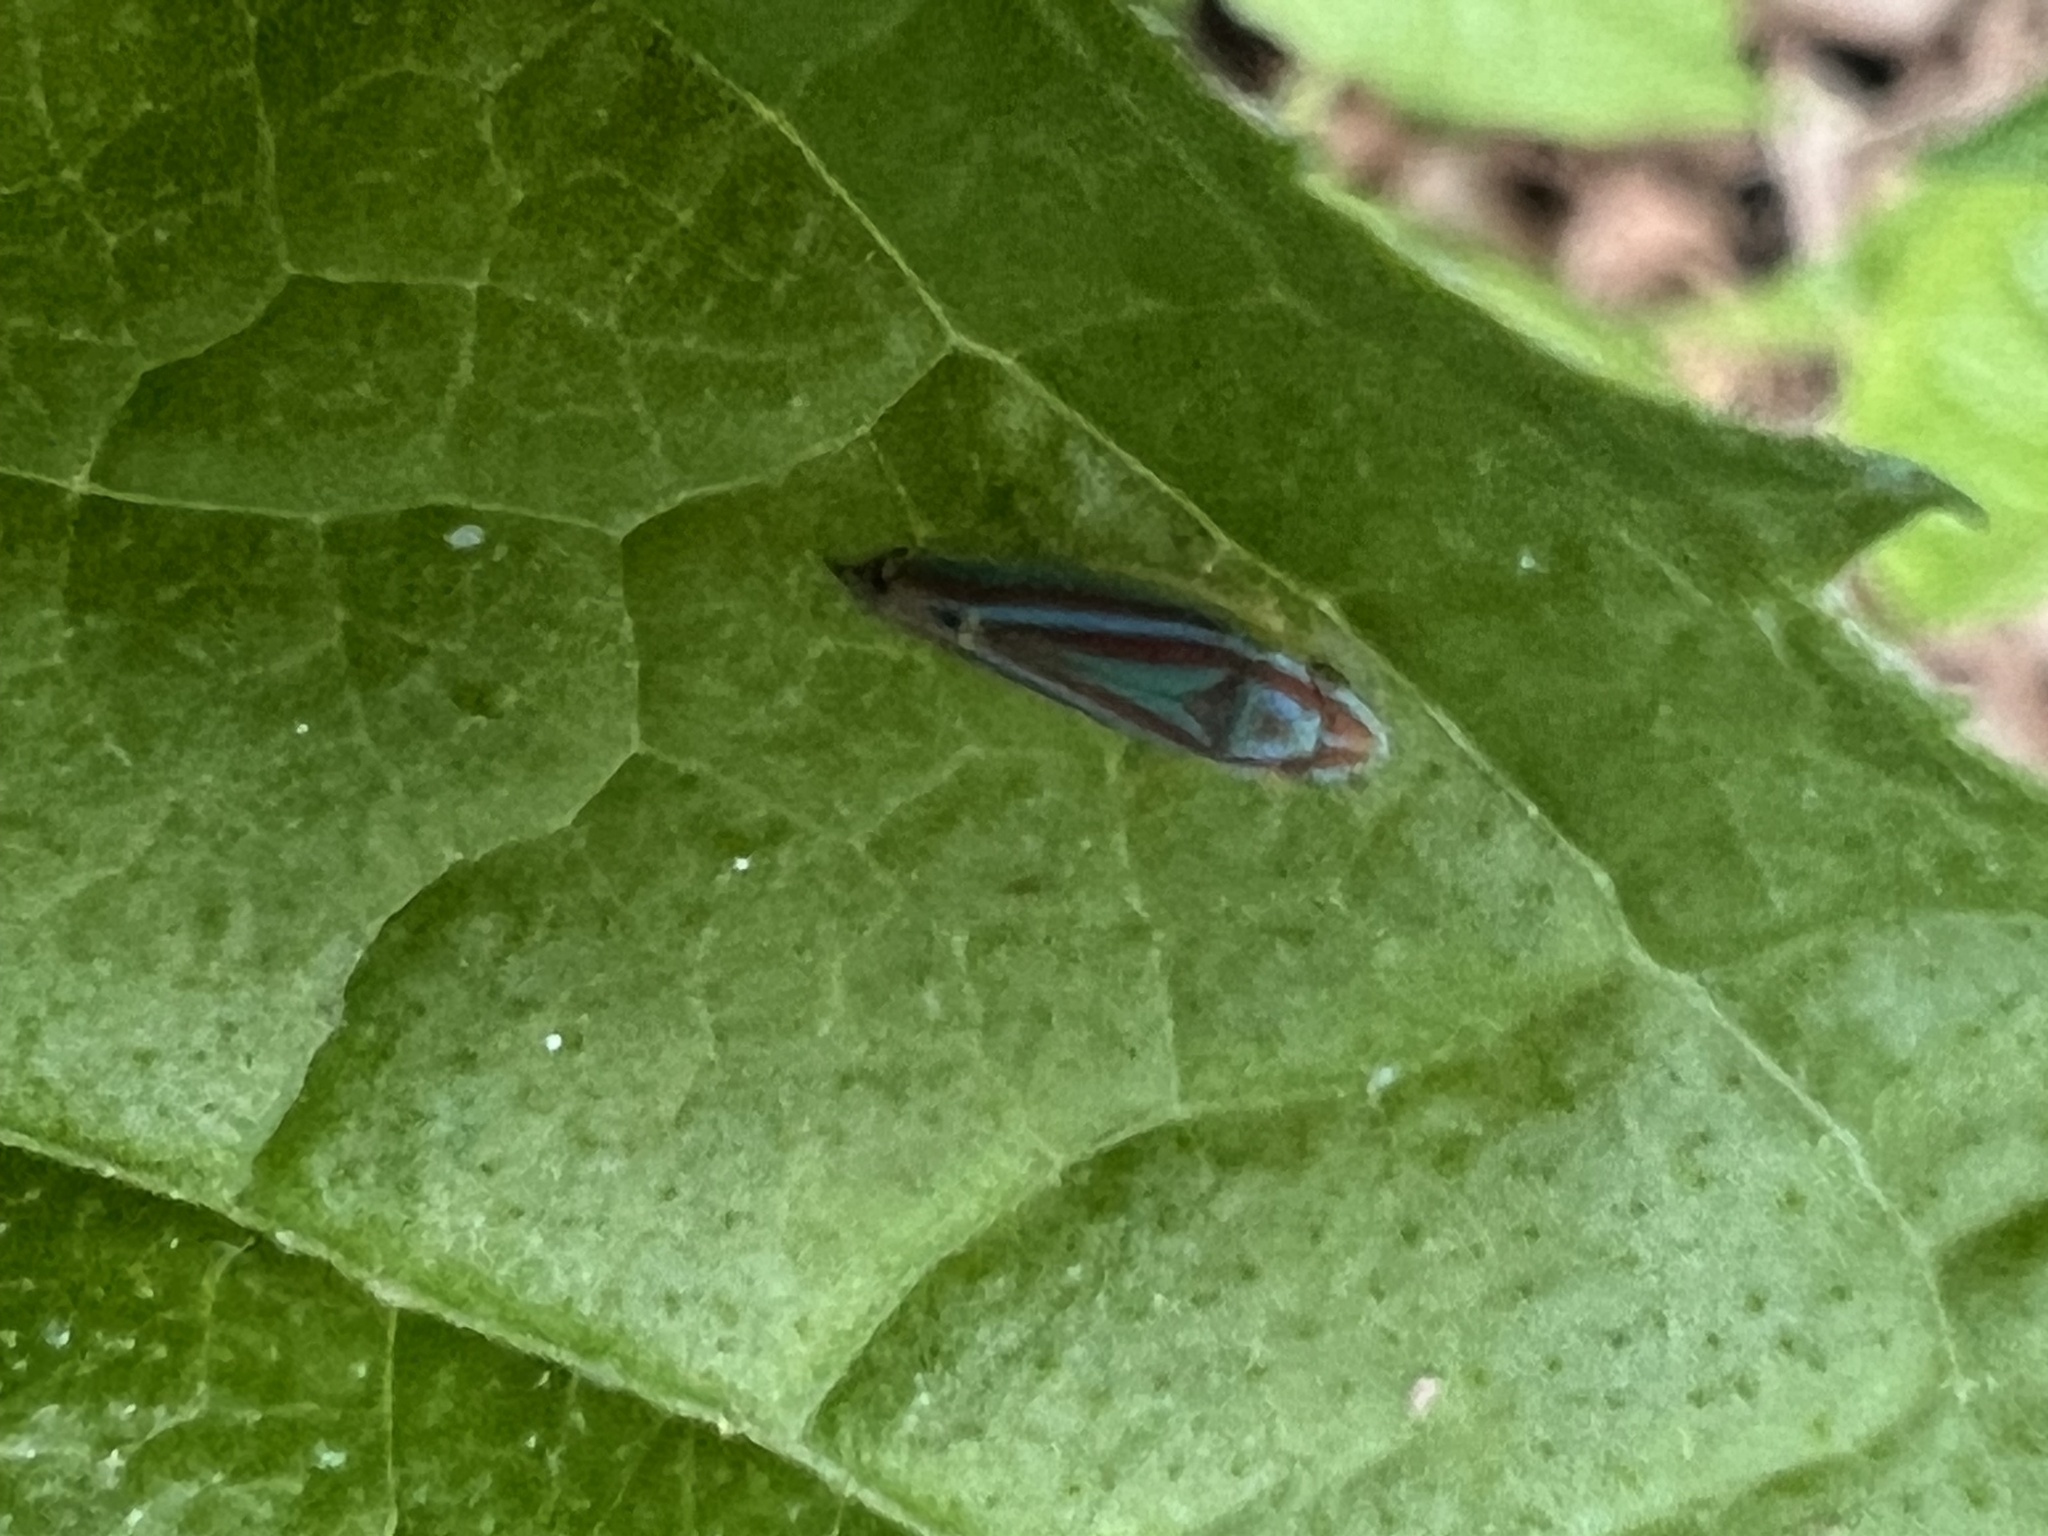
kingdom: Animalia
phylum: Arthropoda
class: Insecta
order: Hemiptera
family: Cicadellidae
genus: Graphocephala
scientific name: Graphocephala versuta
